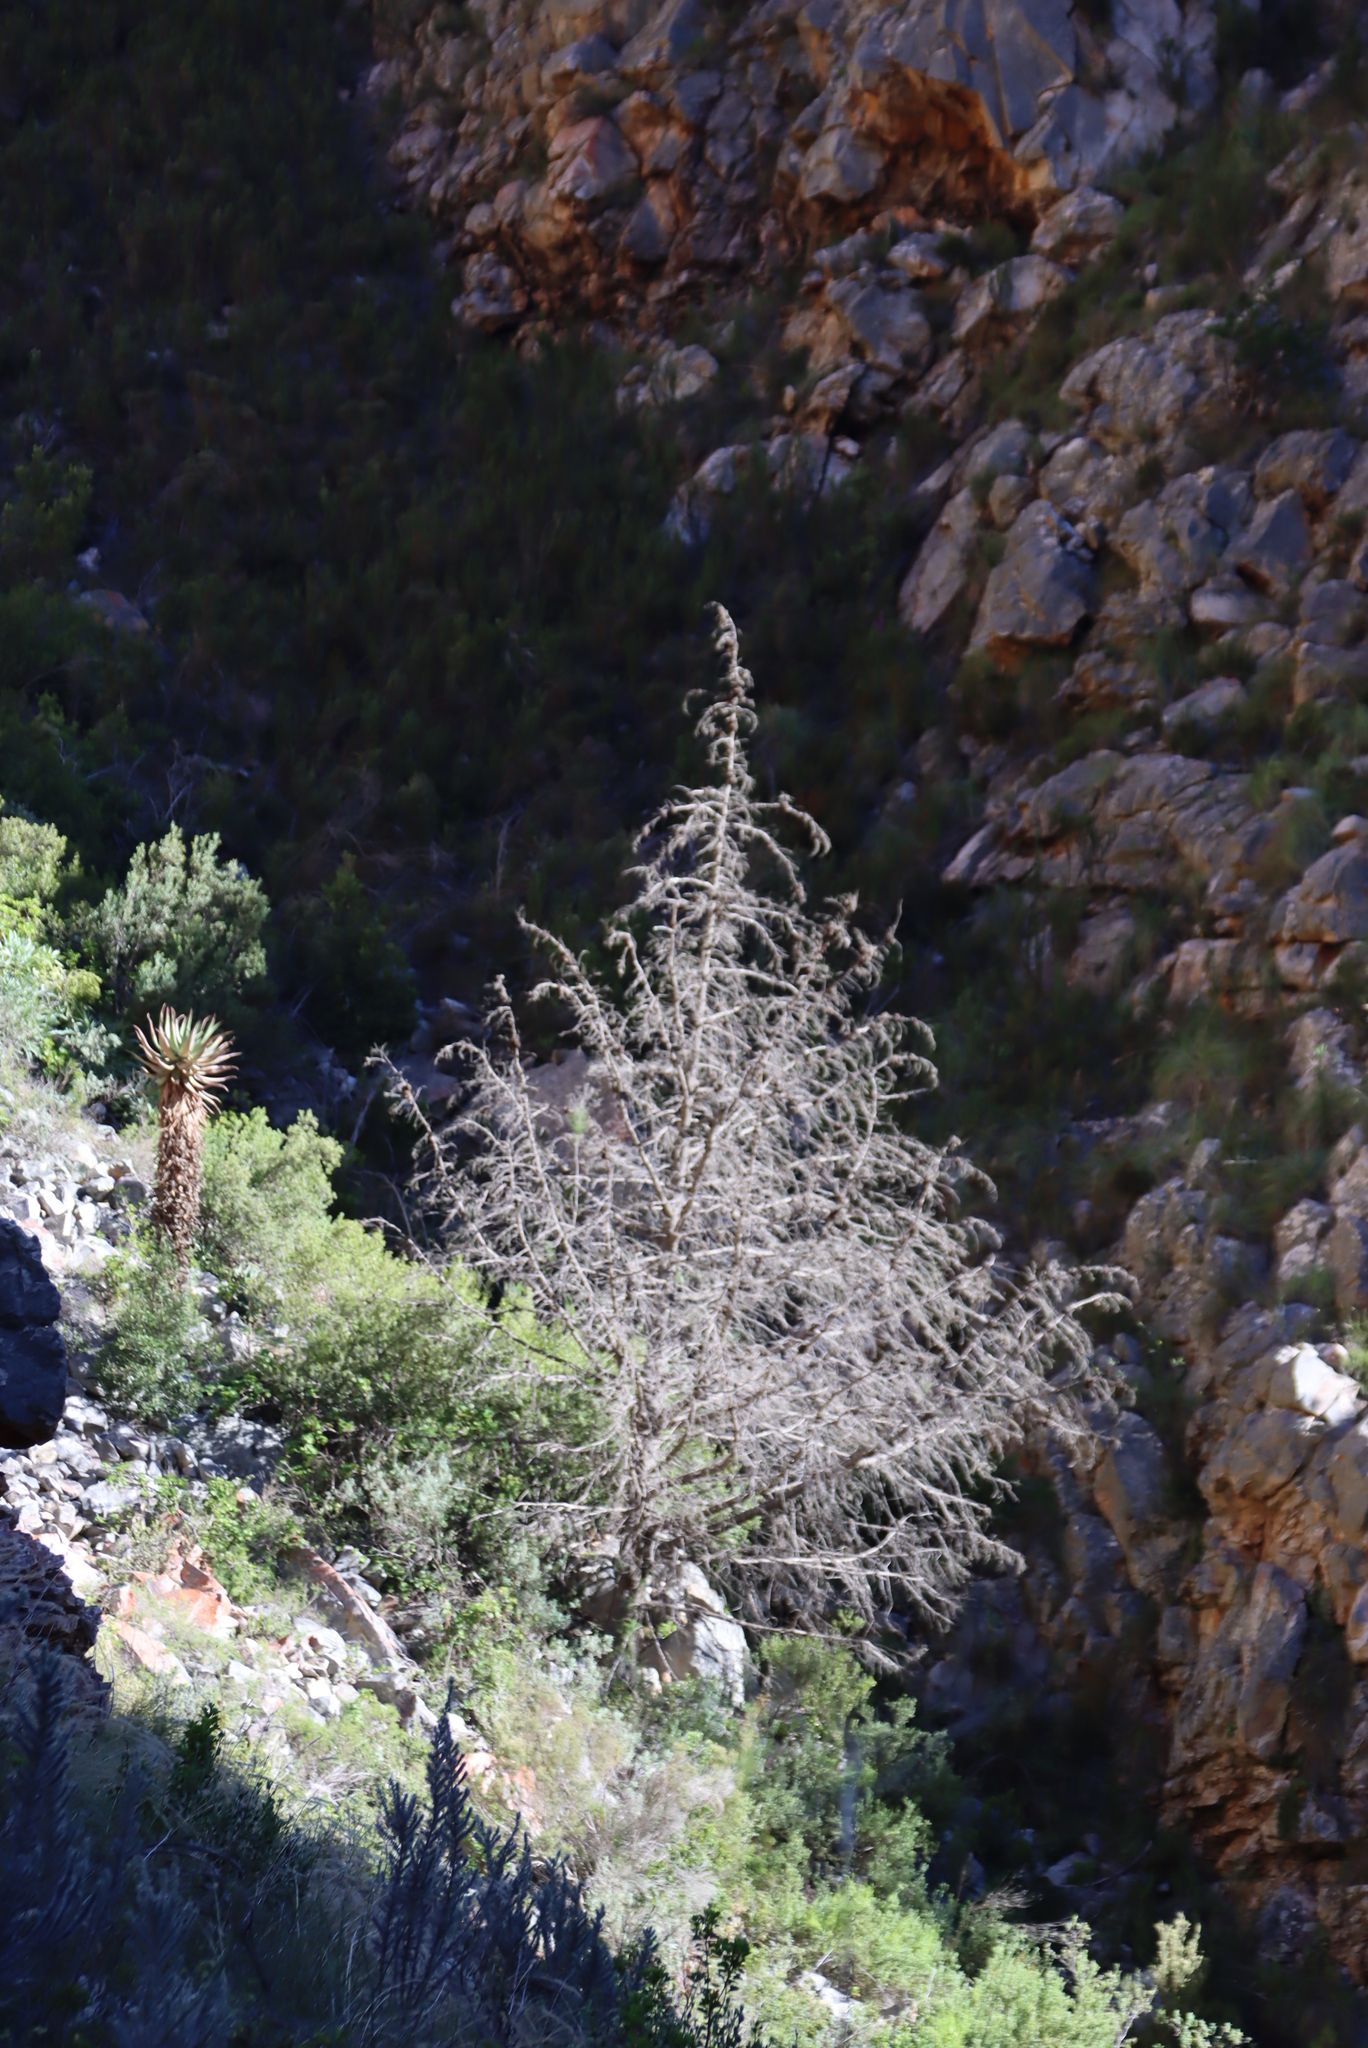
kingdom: Plantae
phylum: Tracheophyta
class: Pinopsida
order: Pinales
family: Cupressaceae
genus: Widdringtonia
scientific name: Widdringtonia schwarzii
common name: Baviaans cedar
